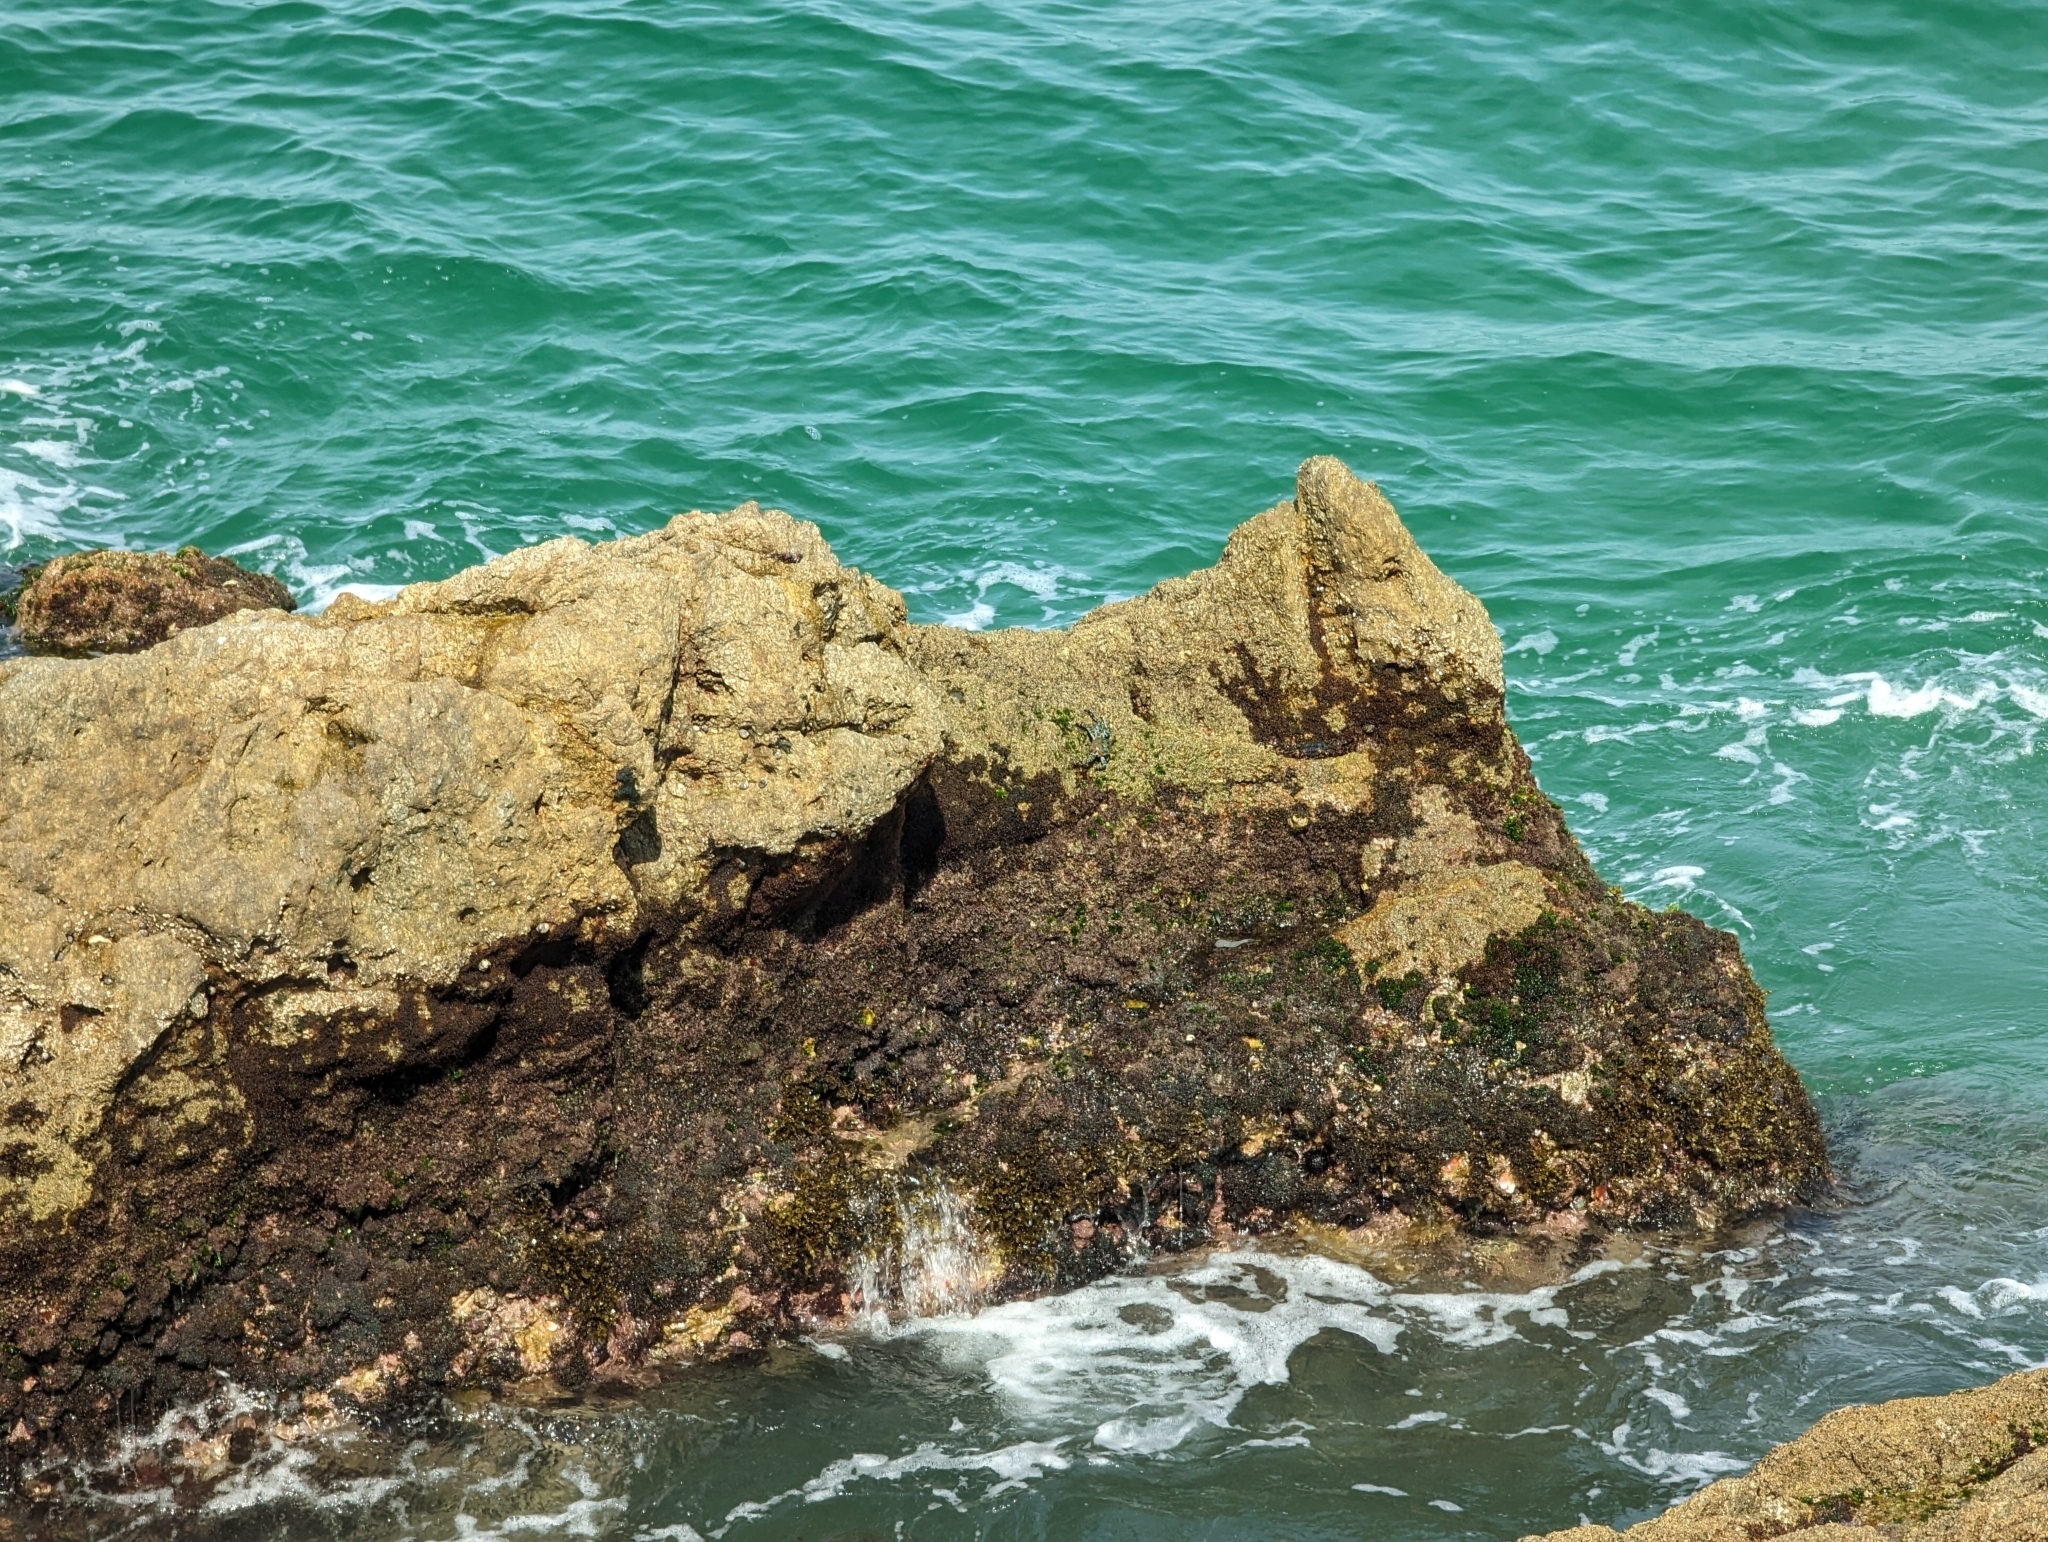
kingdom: Animalia
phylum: Arthropoda
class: Malacostraca
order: Decapoda
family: Grapsidae
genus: Grapsus
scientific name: Grapsus grapsus
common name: Sally lightfoot
